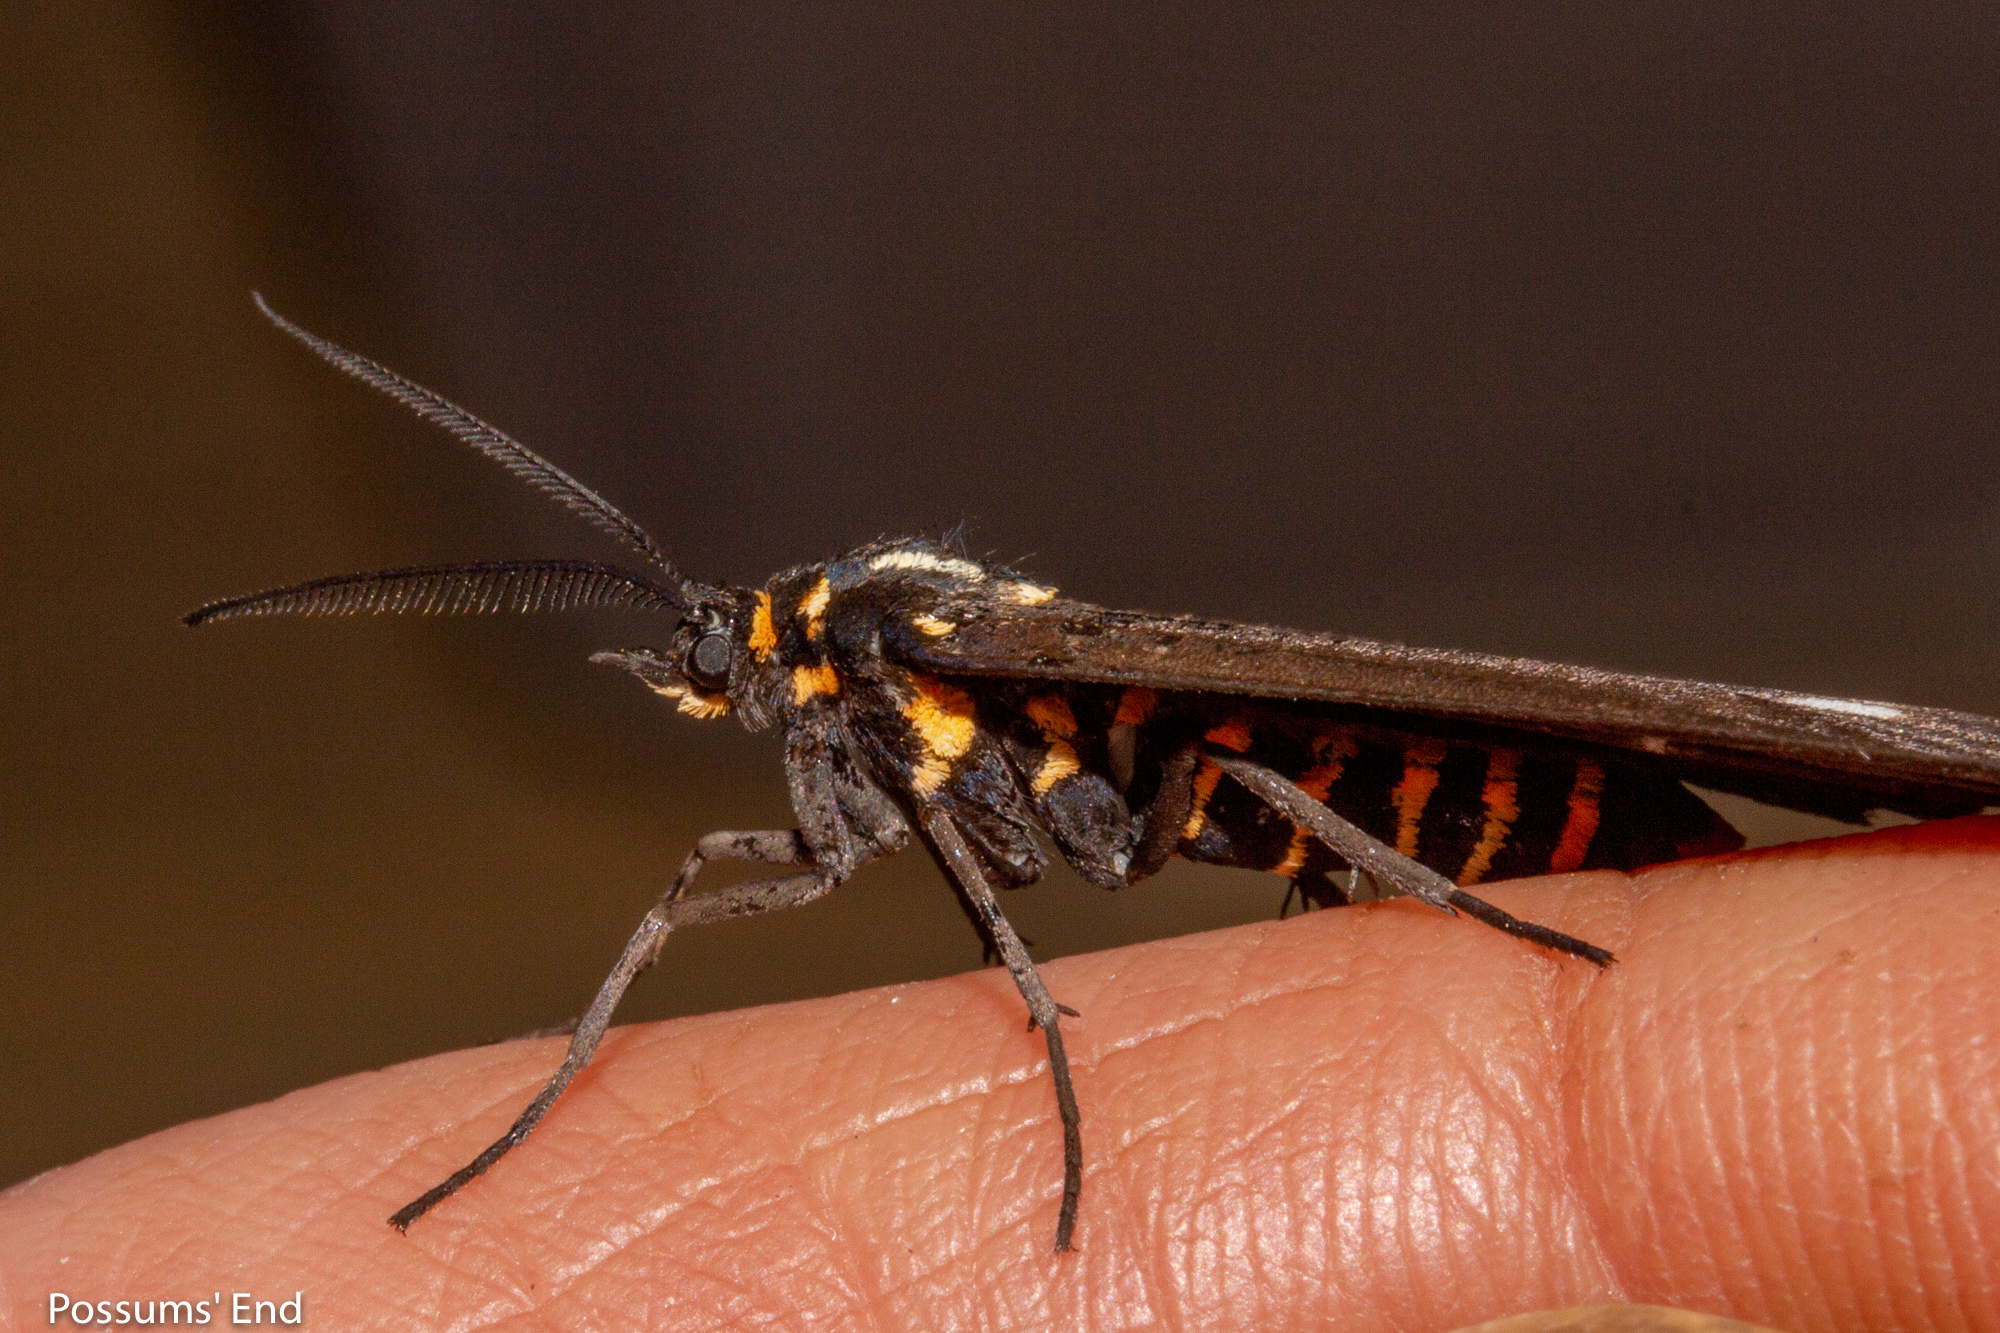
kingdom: Animalia
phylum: Arthropoda
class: Insecta
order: Lepidoptera
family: Erebidae
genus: Nyctemera
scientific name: Nyctemera annulatum
